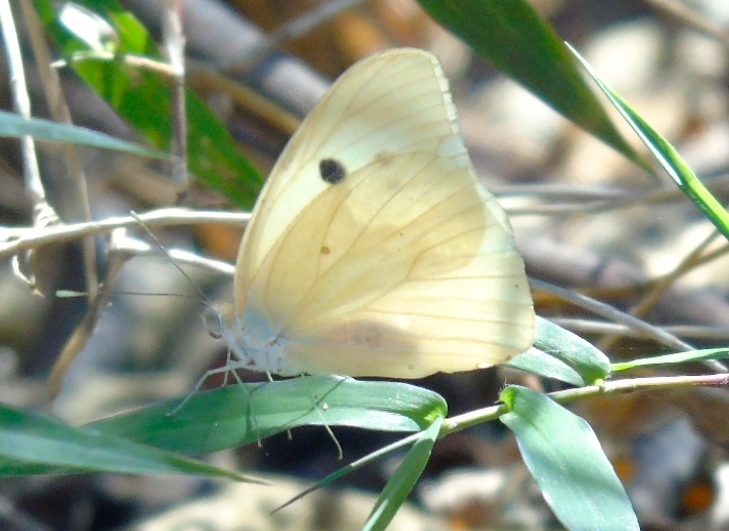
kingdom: Animalia
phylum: Arthropoda
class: Insecta
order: Lepidoptera
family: Pieridae
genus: Ganyra
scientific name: Ganyra josephina
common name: Giant white
